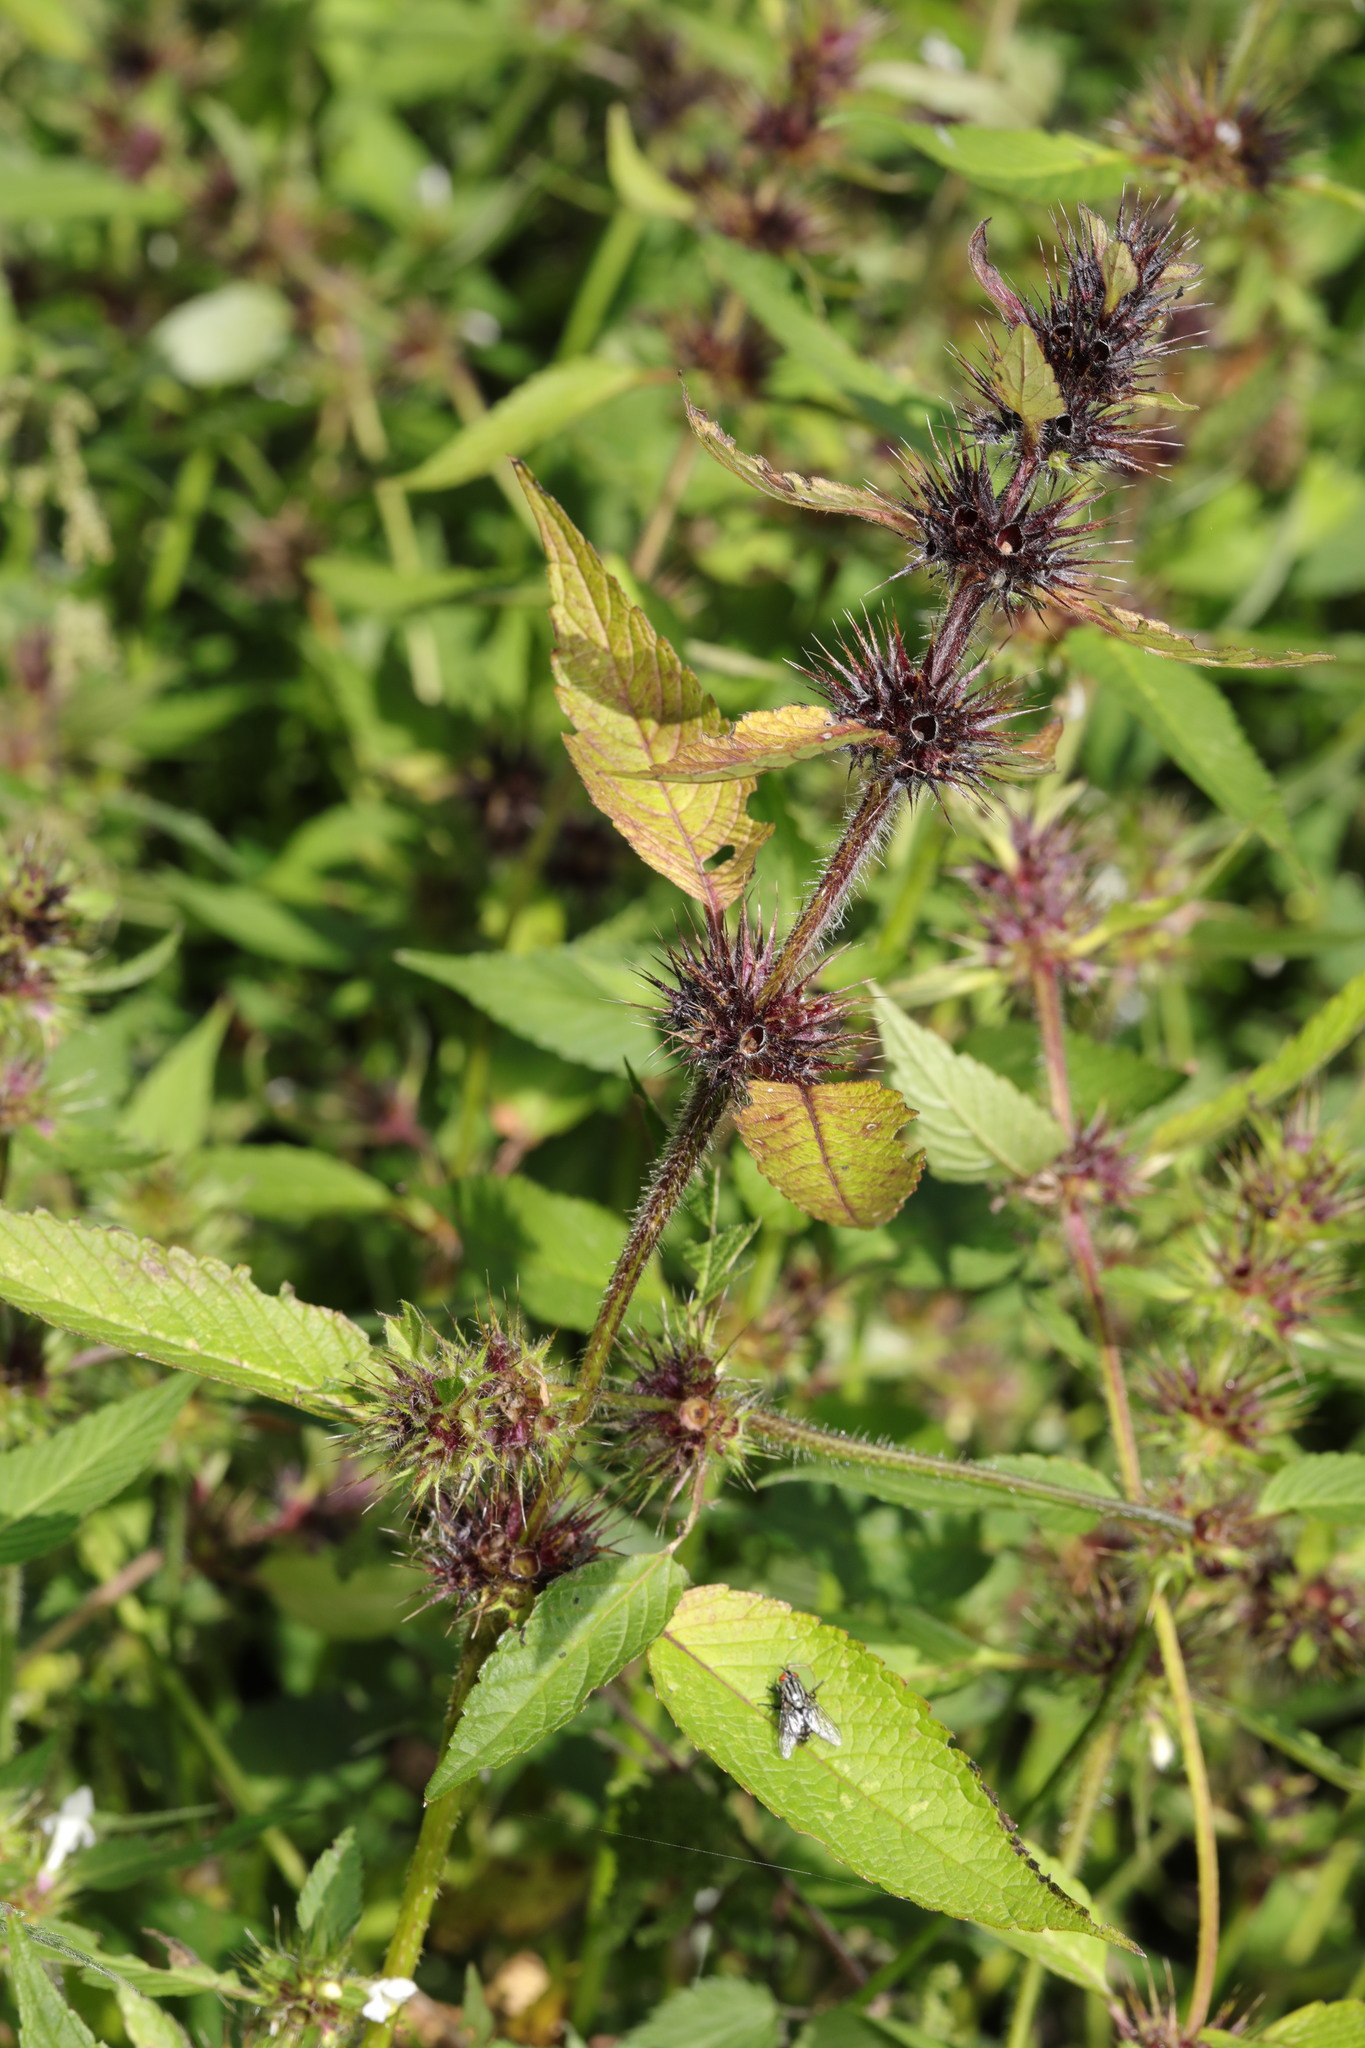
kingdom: Plantae
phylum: Tracheophyta
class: Magnoliopsida
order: Lamiales
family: Lamiaceae
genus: Galeopsis
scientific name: Galeopsis tetrahit
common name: Common hemp-nettle
